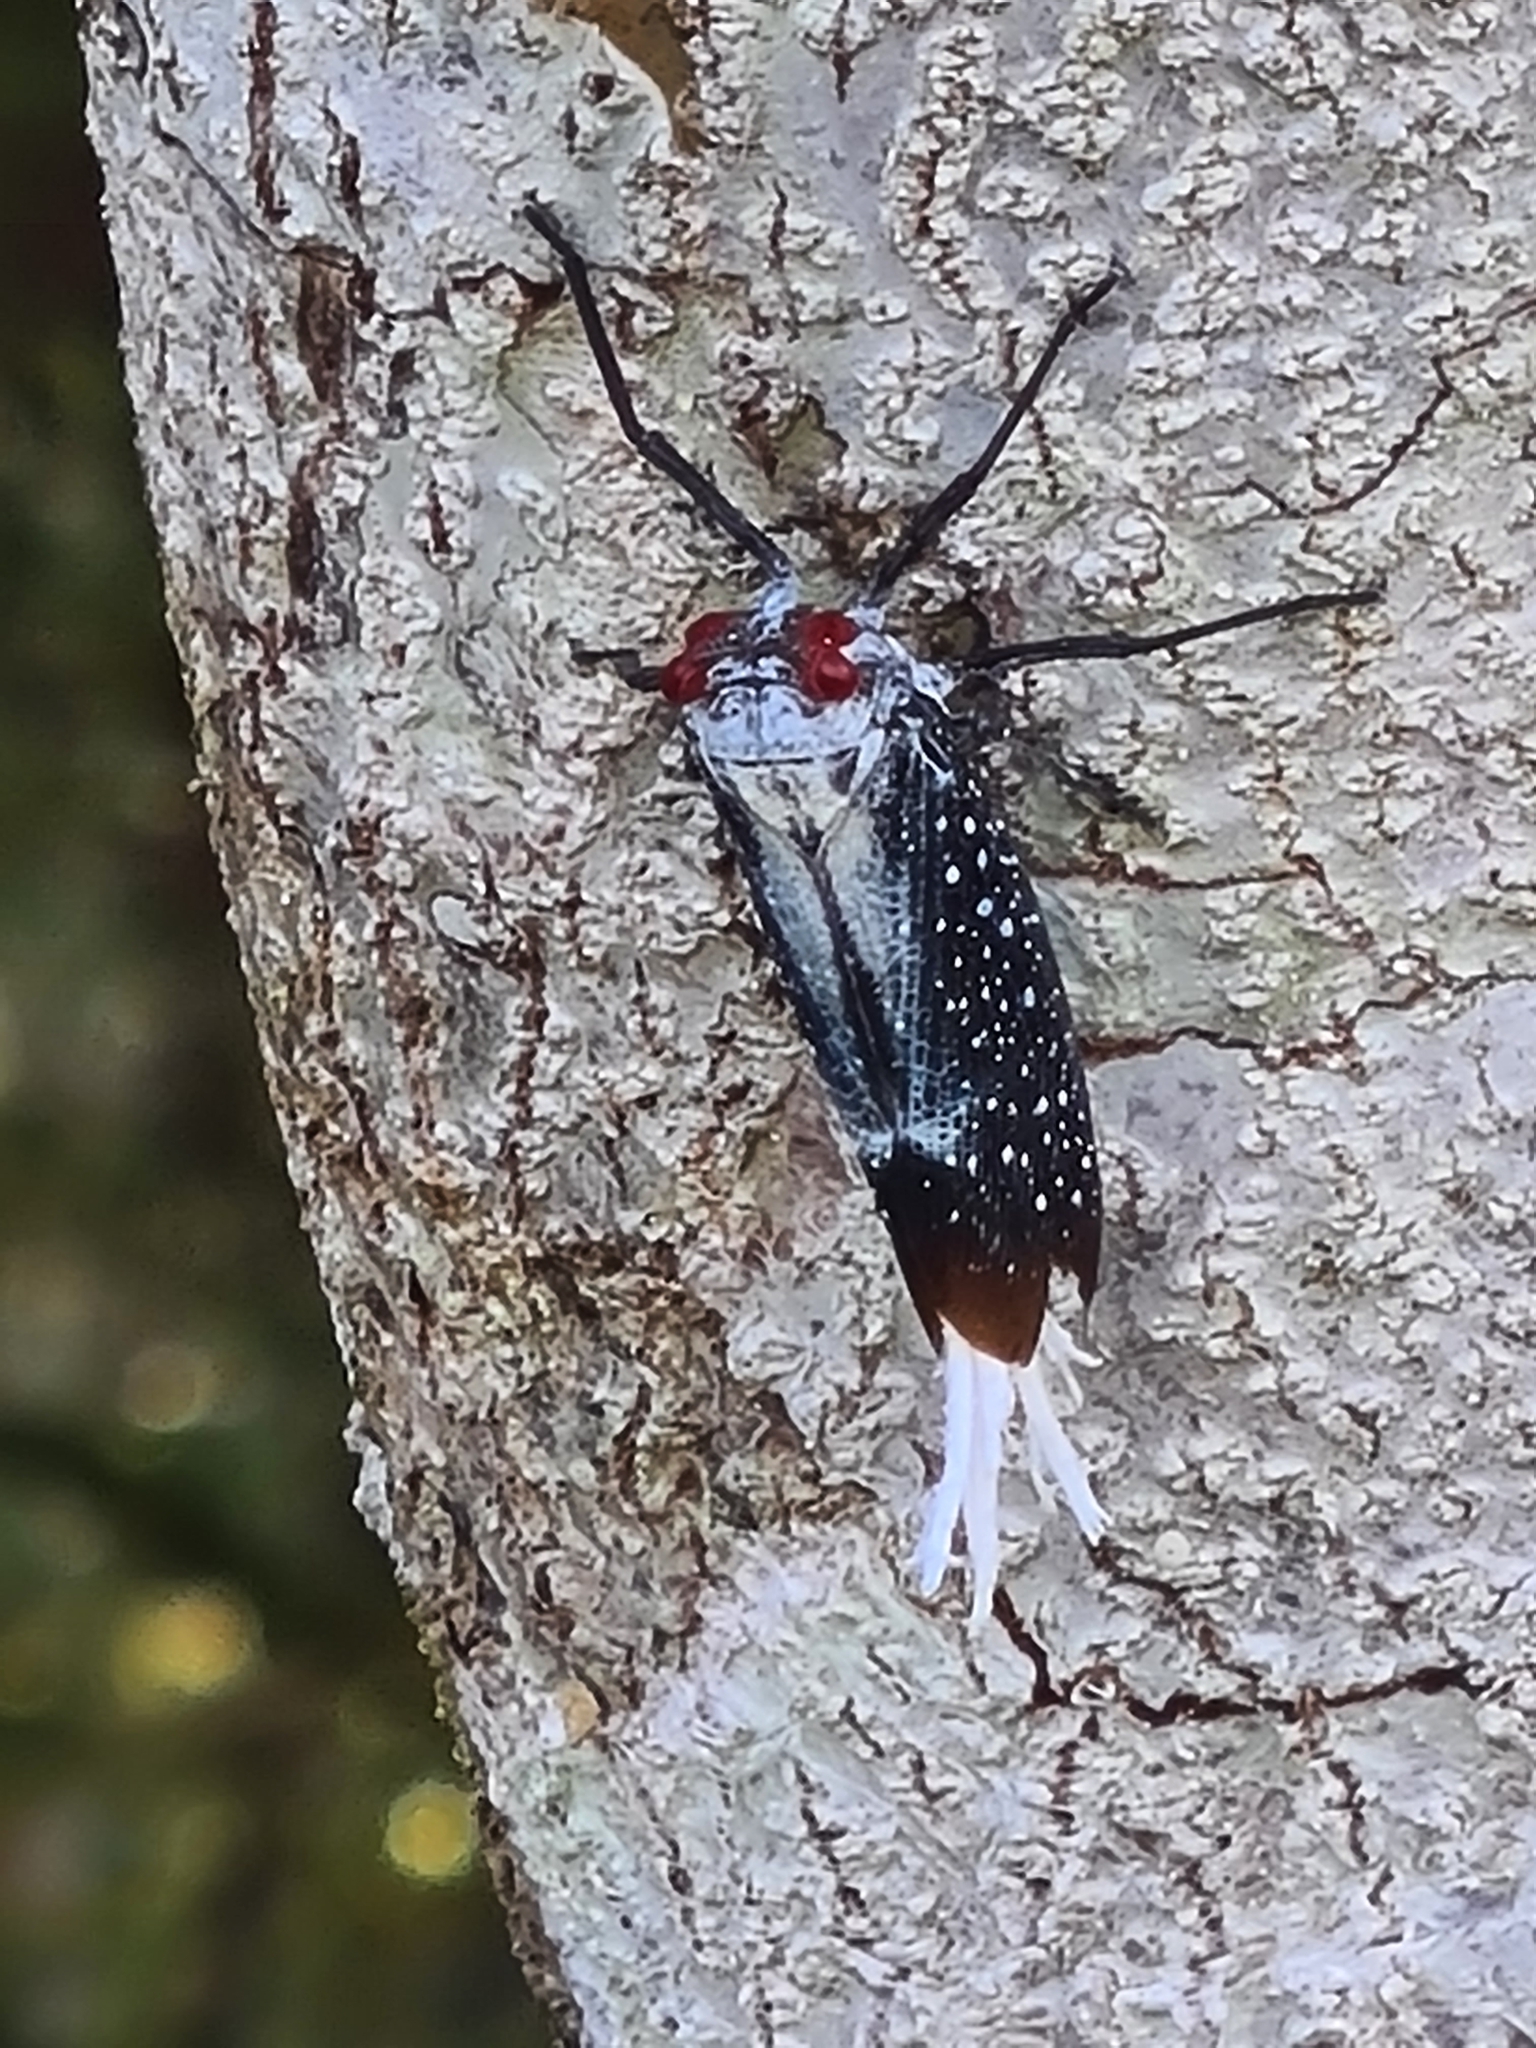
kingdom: Animalia
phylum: Arthropoda
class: Insecta
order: Hemiptera
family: Fulgoridae
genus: Lystra
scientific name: Lystra lanata
